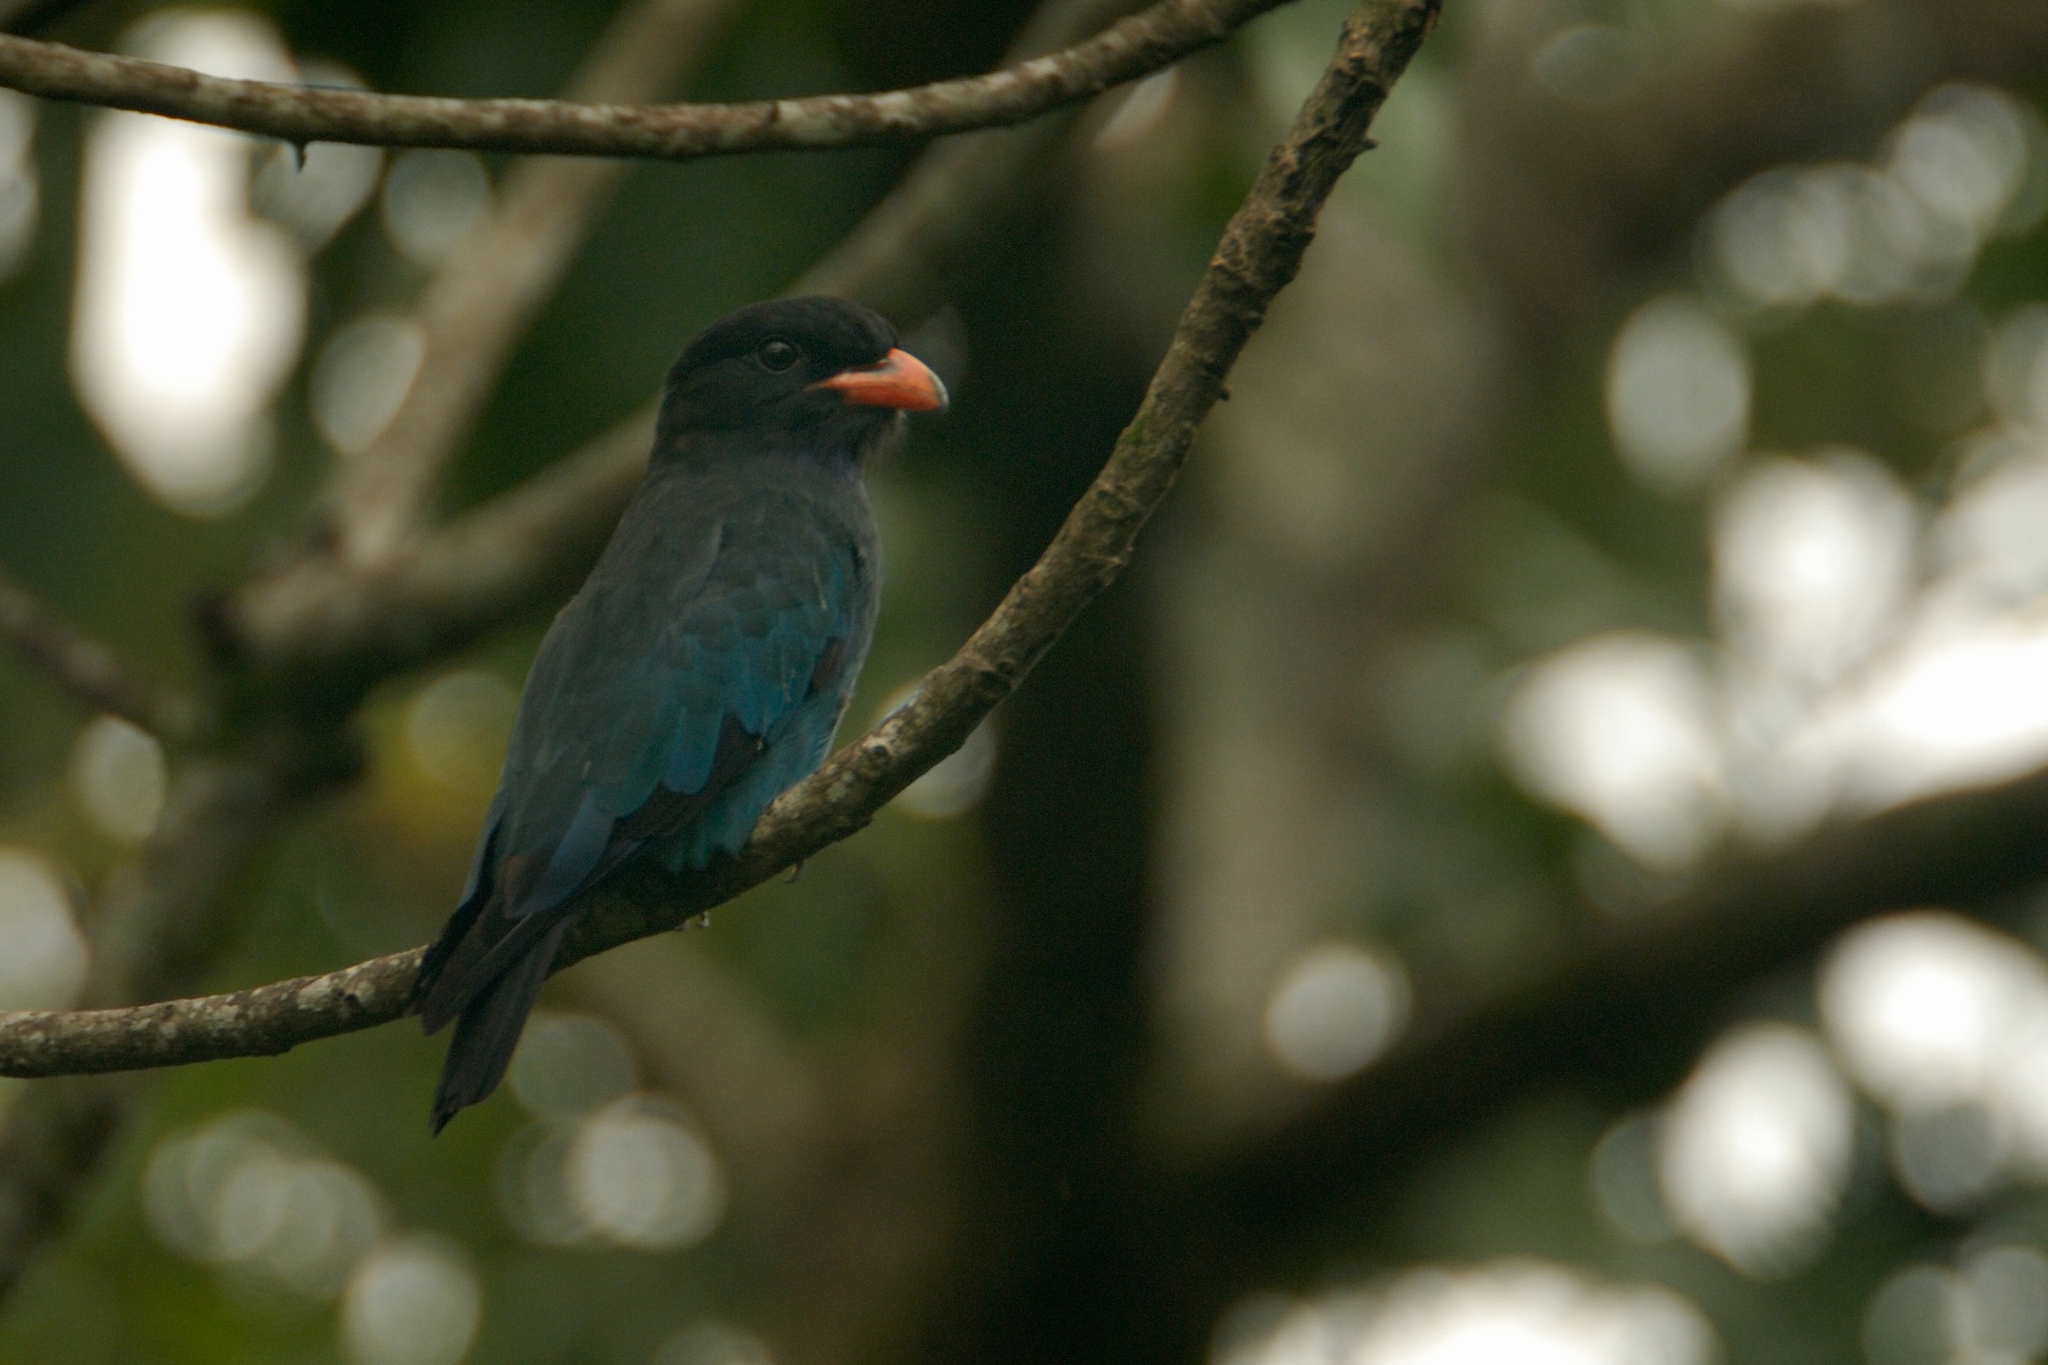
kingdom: Animalia
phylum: Chordata
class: Aves
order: Coraciiformes
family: Coraciidae
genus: Eurystomus
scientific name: Eurystomus orientalis
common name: Oriental dollarbird
